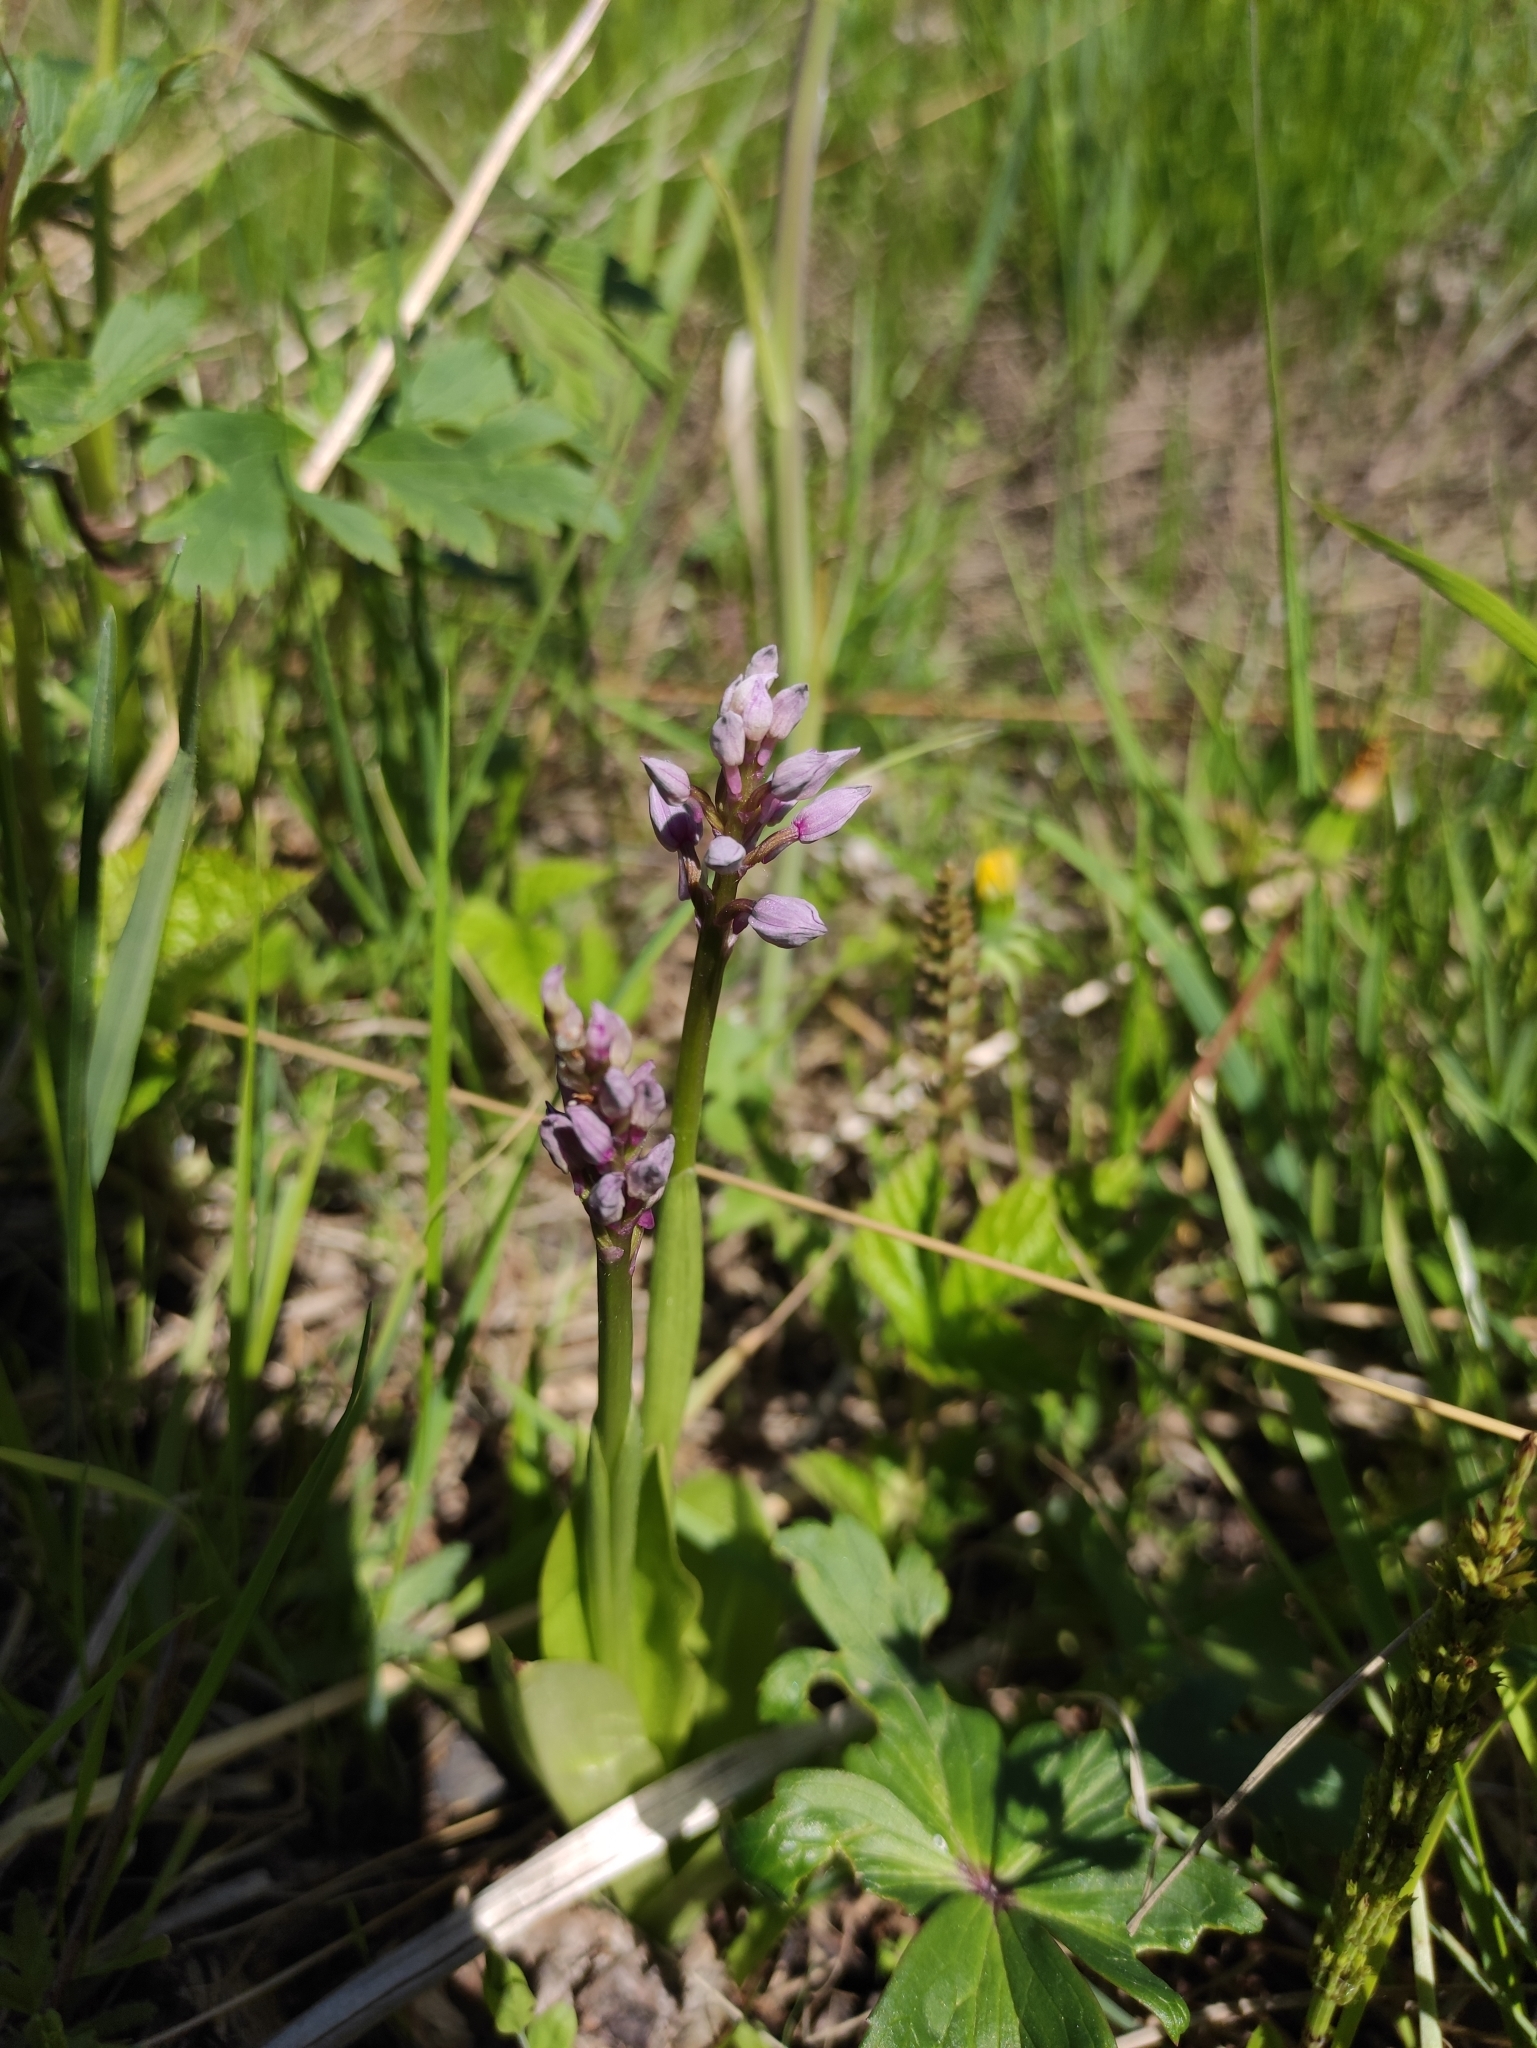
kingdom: Plantae
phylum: Tracheophyta
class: Liliopsida
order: Asparagales
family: Orchidaceae
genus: Orchis
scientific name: Orchis militaris
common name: Military orchid
